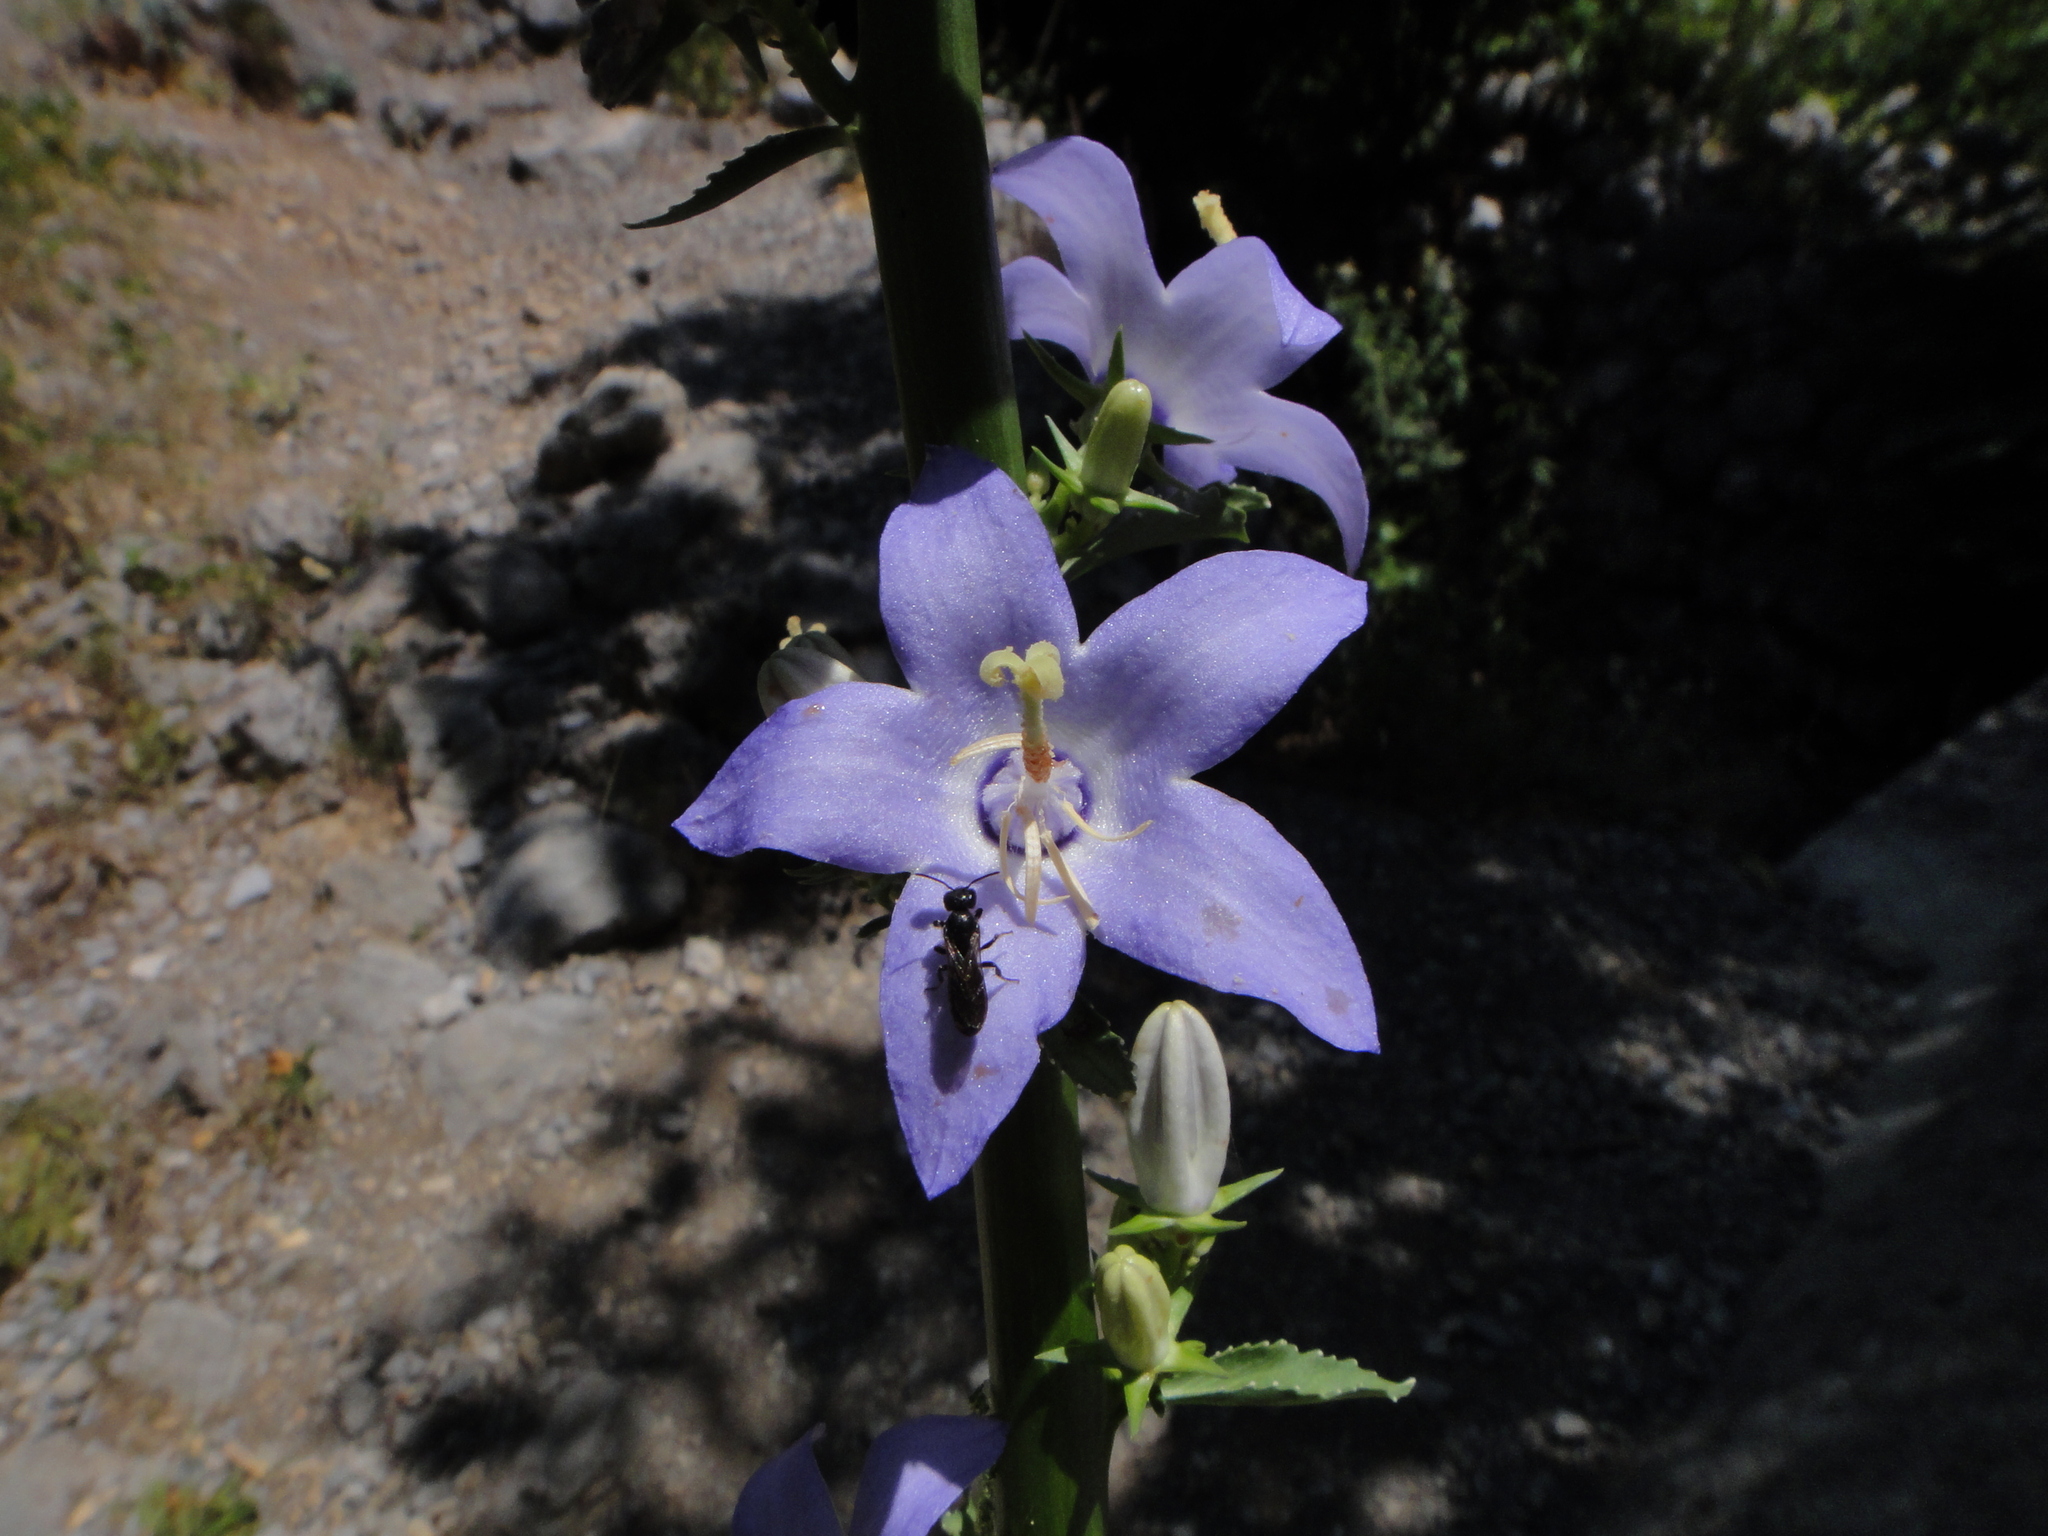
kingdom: Plantae
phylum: Tracheophyta
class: Magnoliopsida
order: Asterales
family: Campanulaceae
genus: Campanula
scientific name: Campanula pyramidalis
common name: Chimney bellflower
